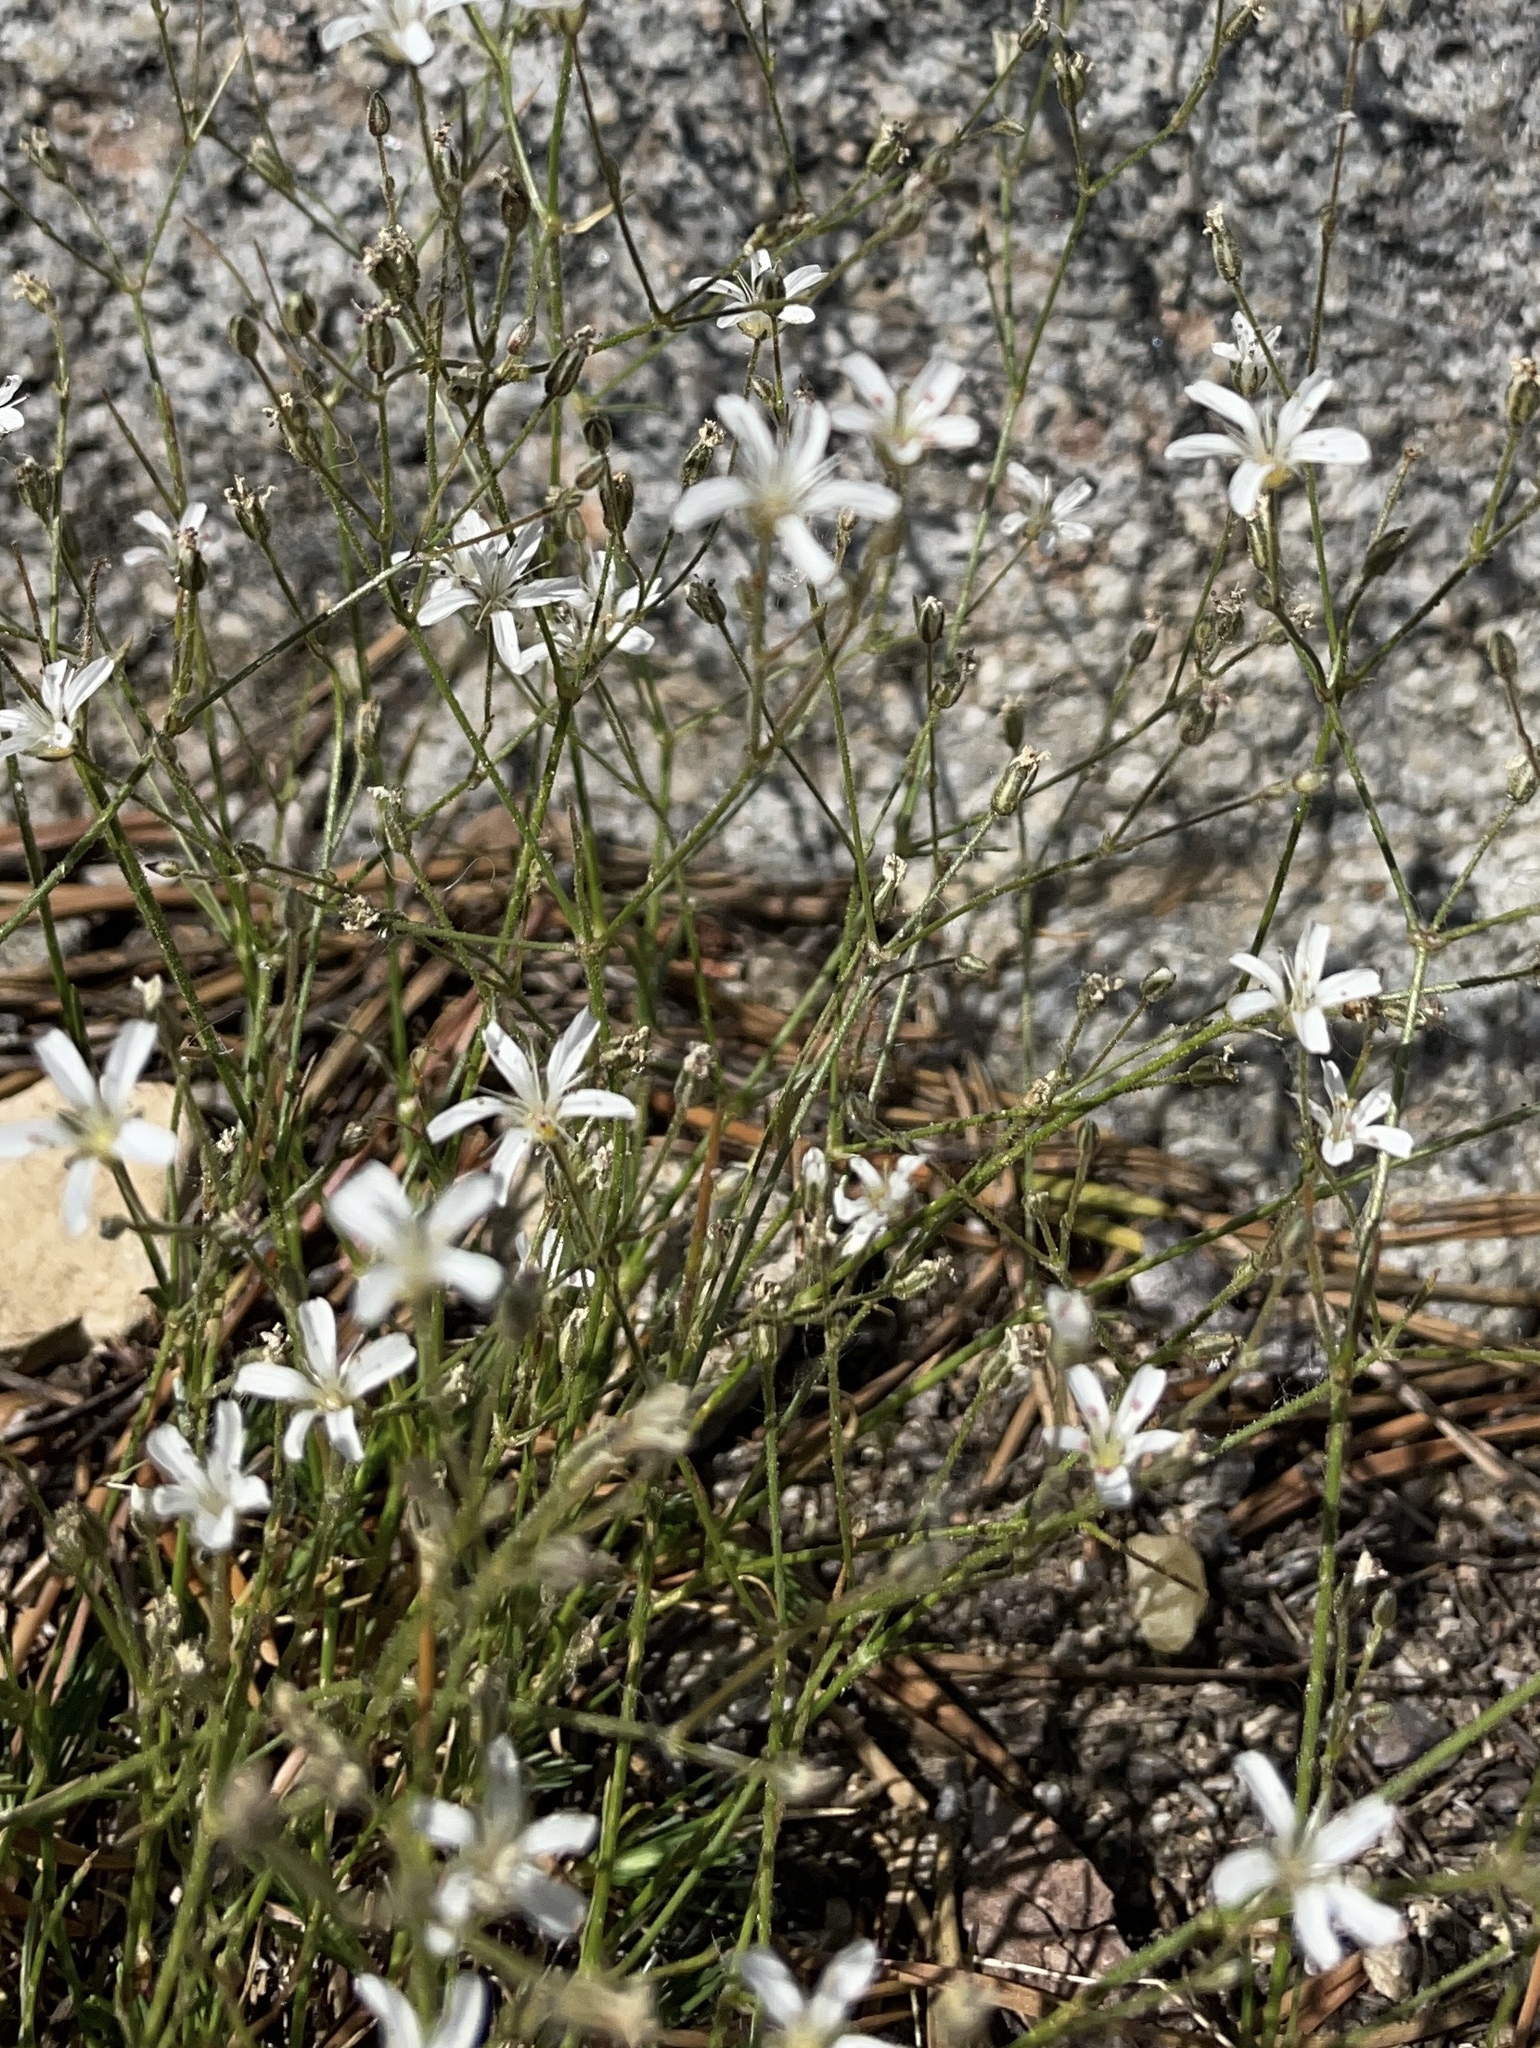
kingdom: Plantae
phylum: Tracheophyta
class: Magnoliopsida
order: Caryophyllales
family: Caryophyllaceae
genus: Eremogone
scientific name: Eremogone kingii
